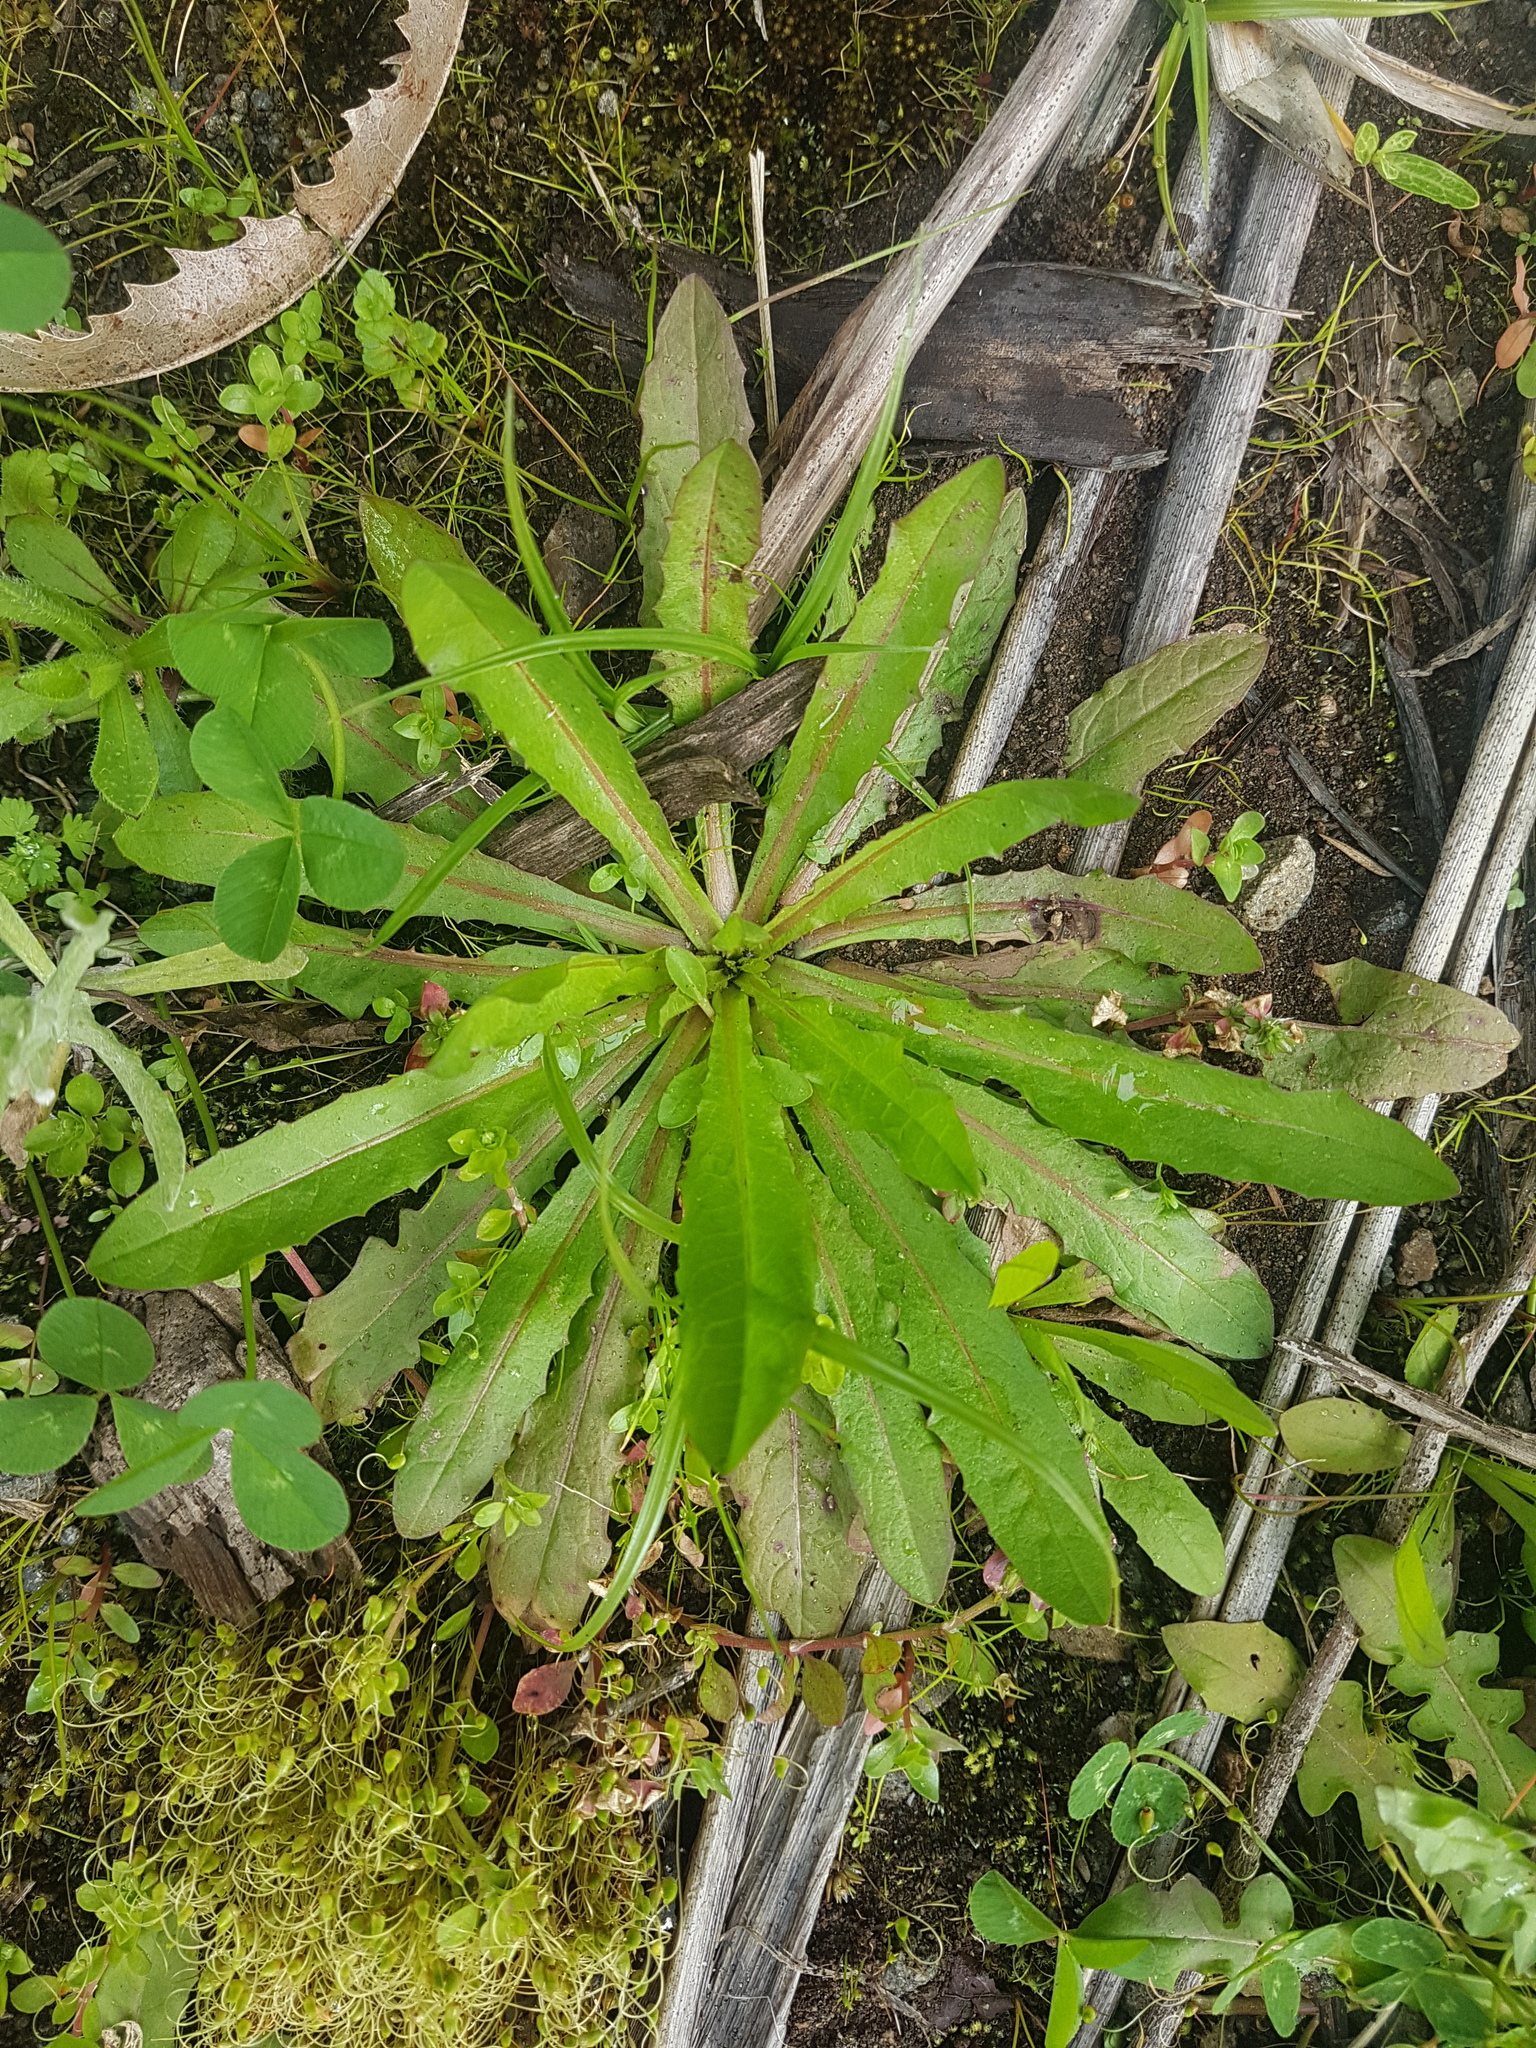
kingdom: Plantae
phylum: Tracheophyta
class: Magnoliopsida
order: Asterales
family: Asteraceae
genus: Crepis
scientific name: Crepis capillaris
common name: Smooth hawksbeard
